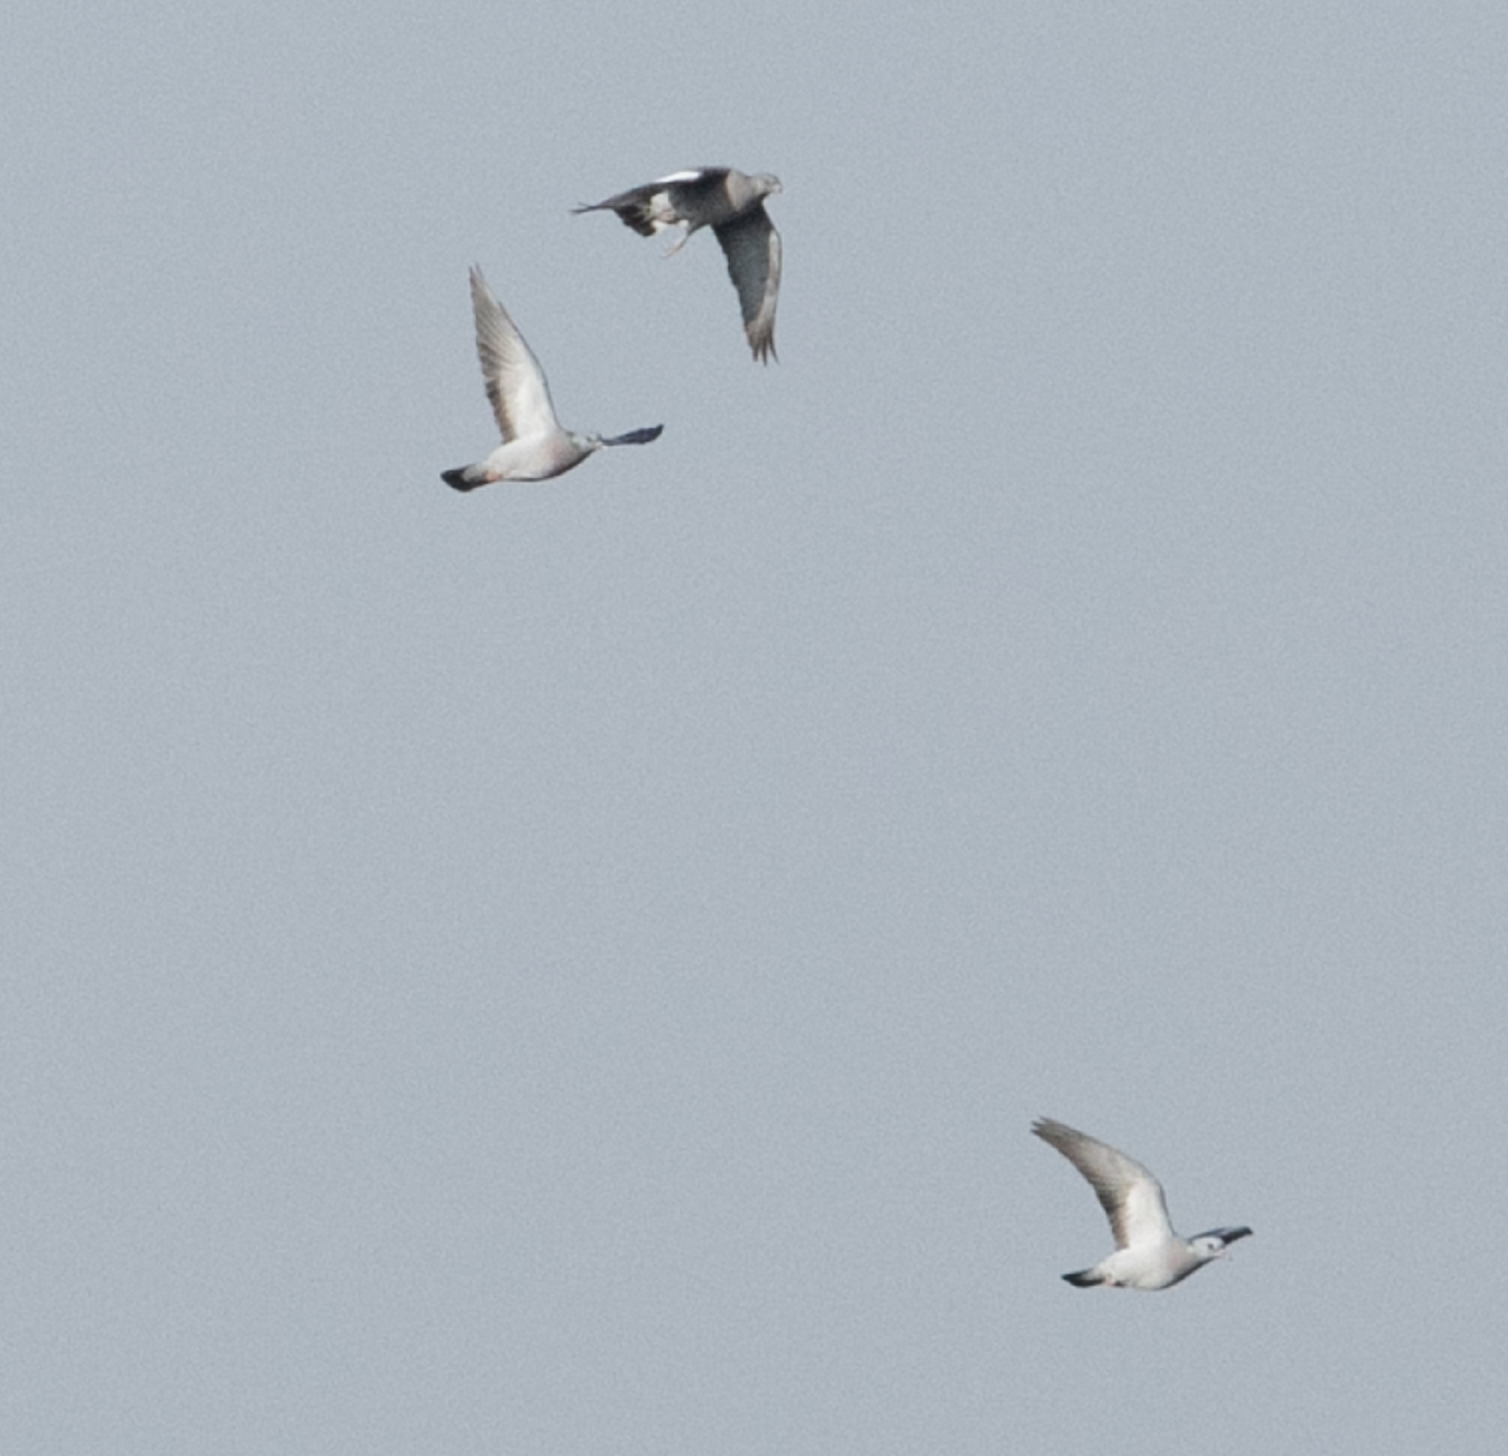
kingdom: Animalia
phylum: Chordata
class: Aves
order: Columbiformes
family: Columbidae
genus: Columba
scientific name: Columba palumbus
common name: Common wood pigeon
